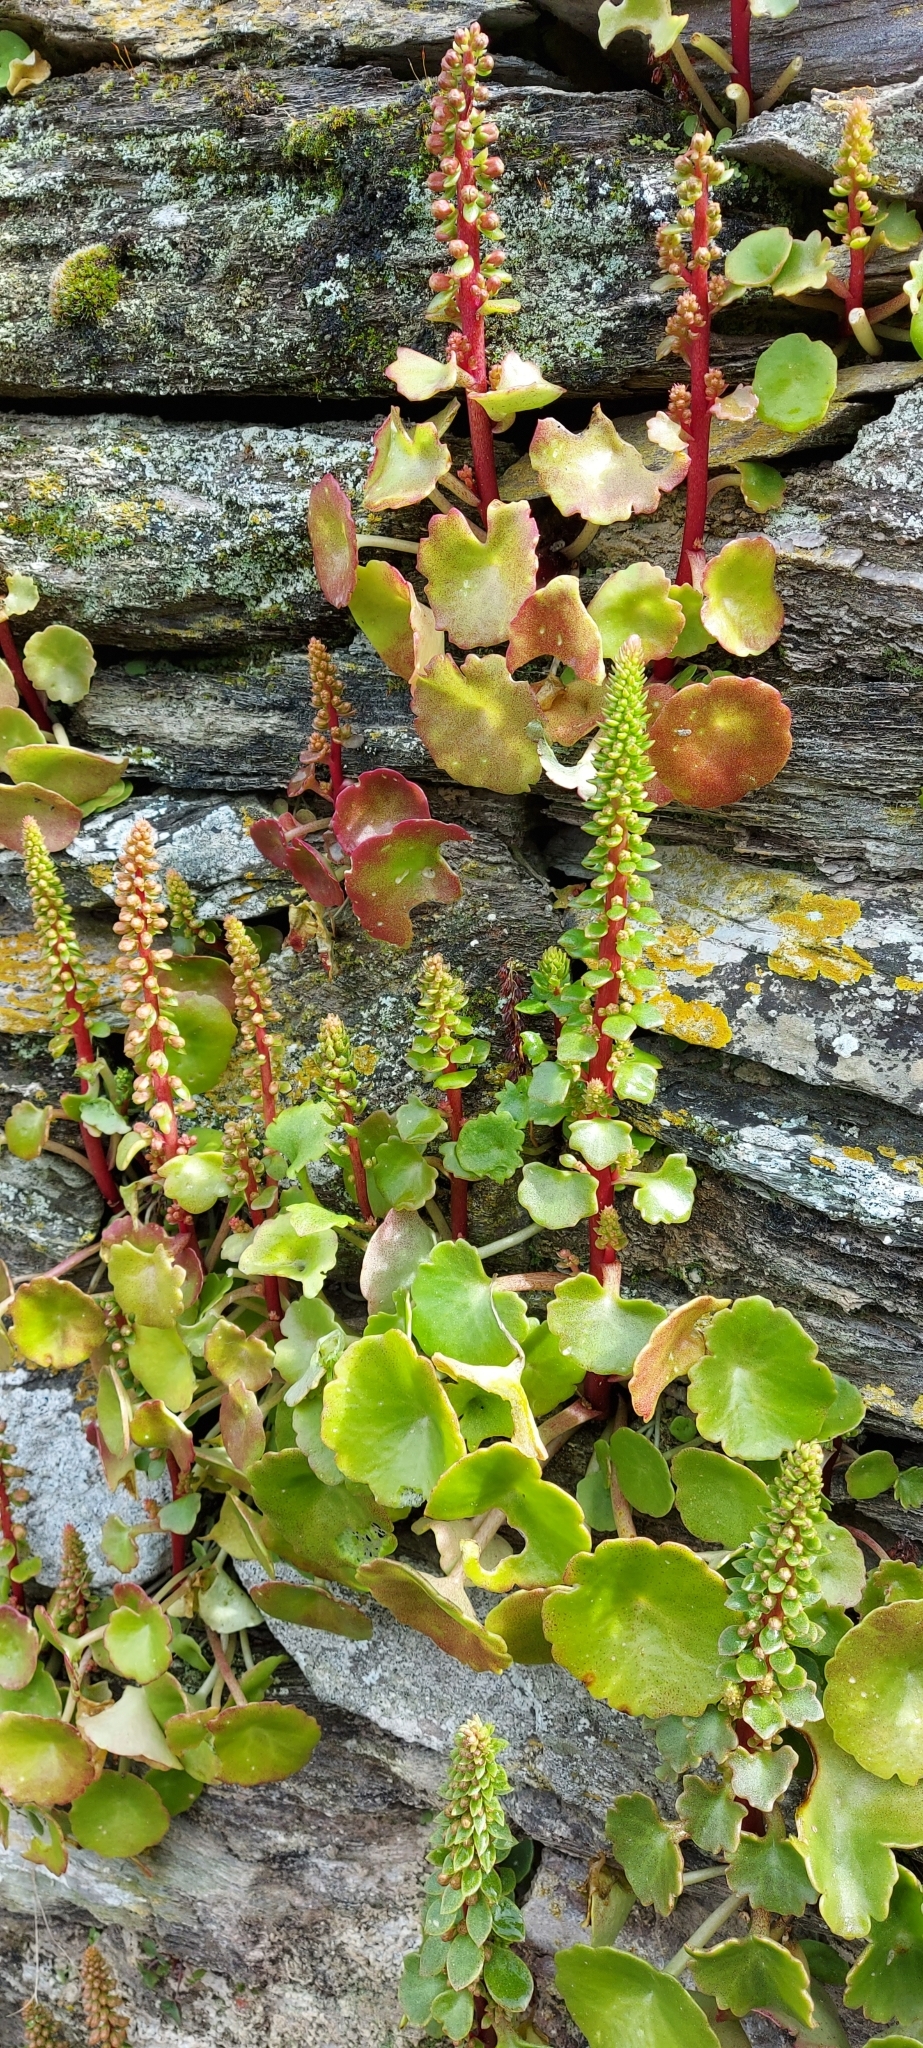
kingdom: Plantae
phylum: Tracheophyta
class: Magnoliopsida
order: Saxifragales
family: Crassulaceae
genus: Umbilicus
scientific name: Umbilicus rupestris
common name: Navelwort
